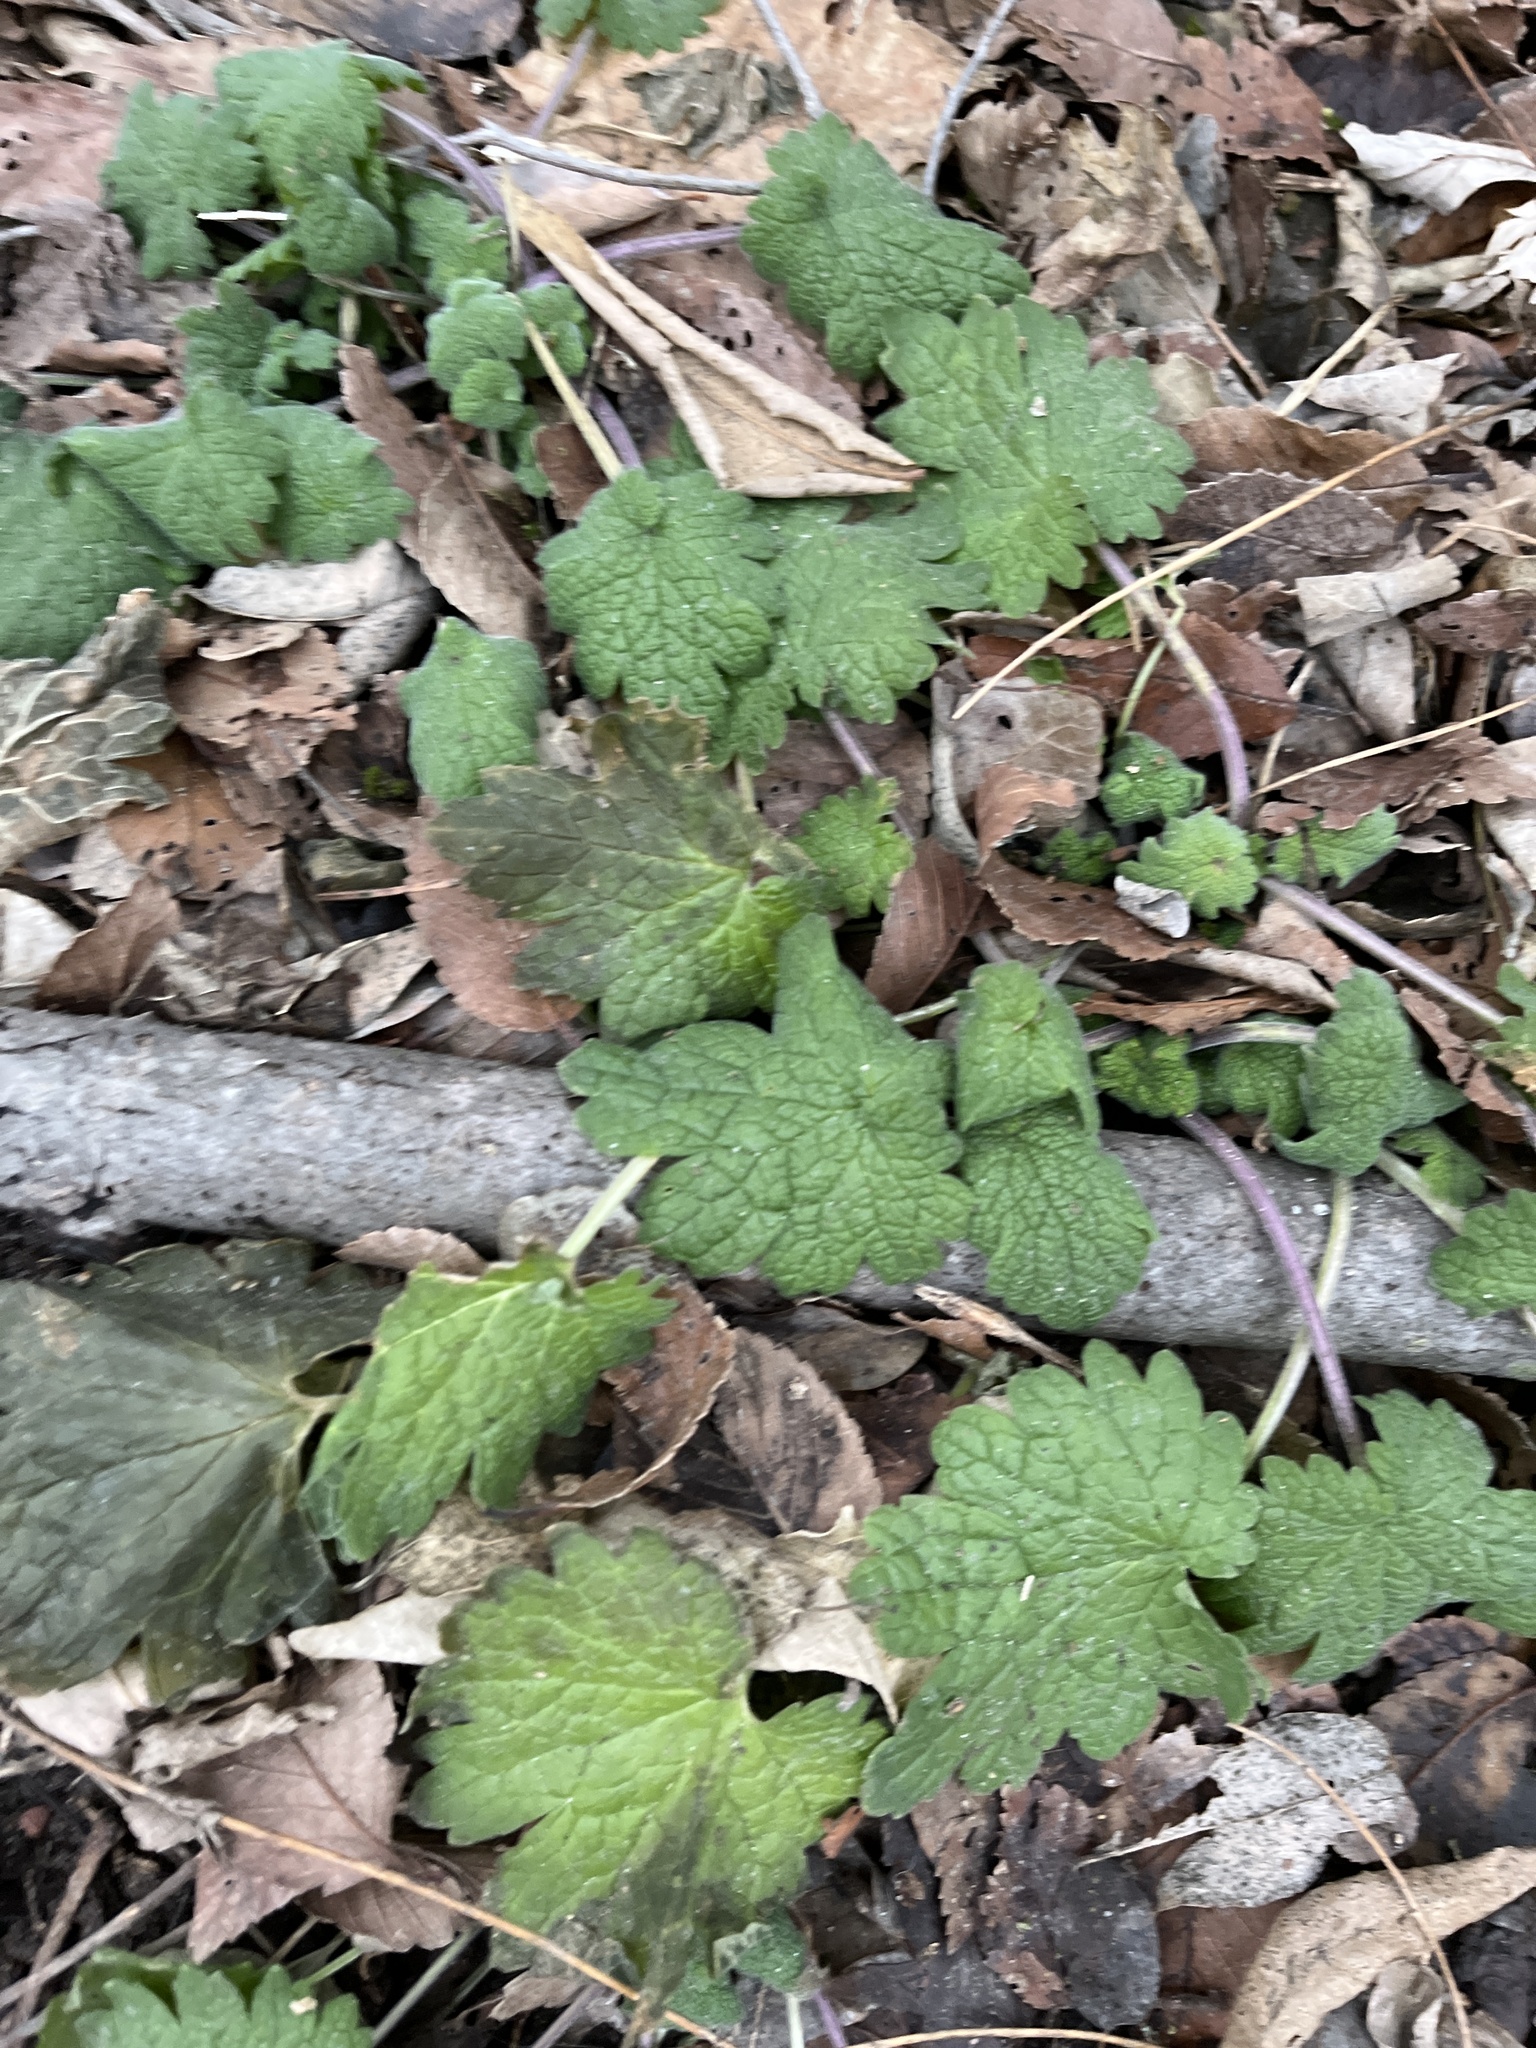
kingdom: Plantae
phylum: Tracheophyta
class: Magnoliopsida
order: Lamiales
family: Lamiaceae
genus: Leonurus
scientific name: Leonurus cardiaca
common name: Motherwort
